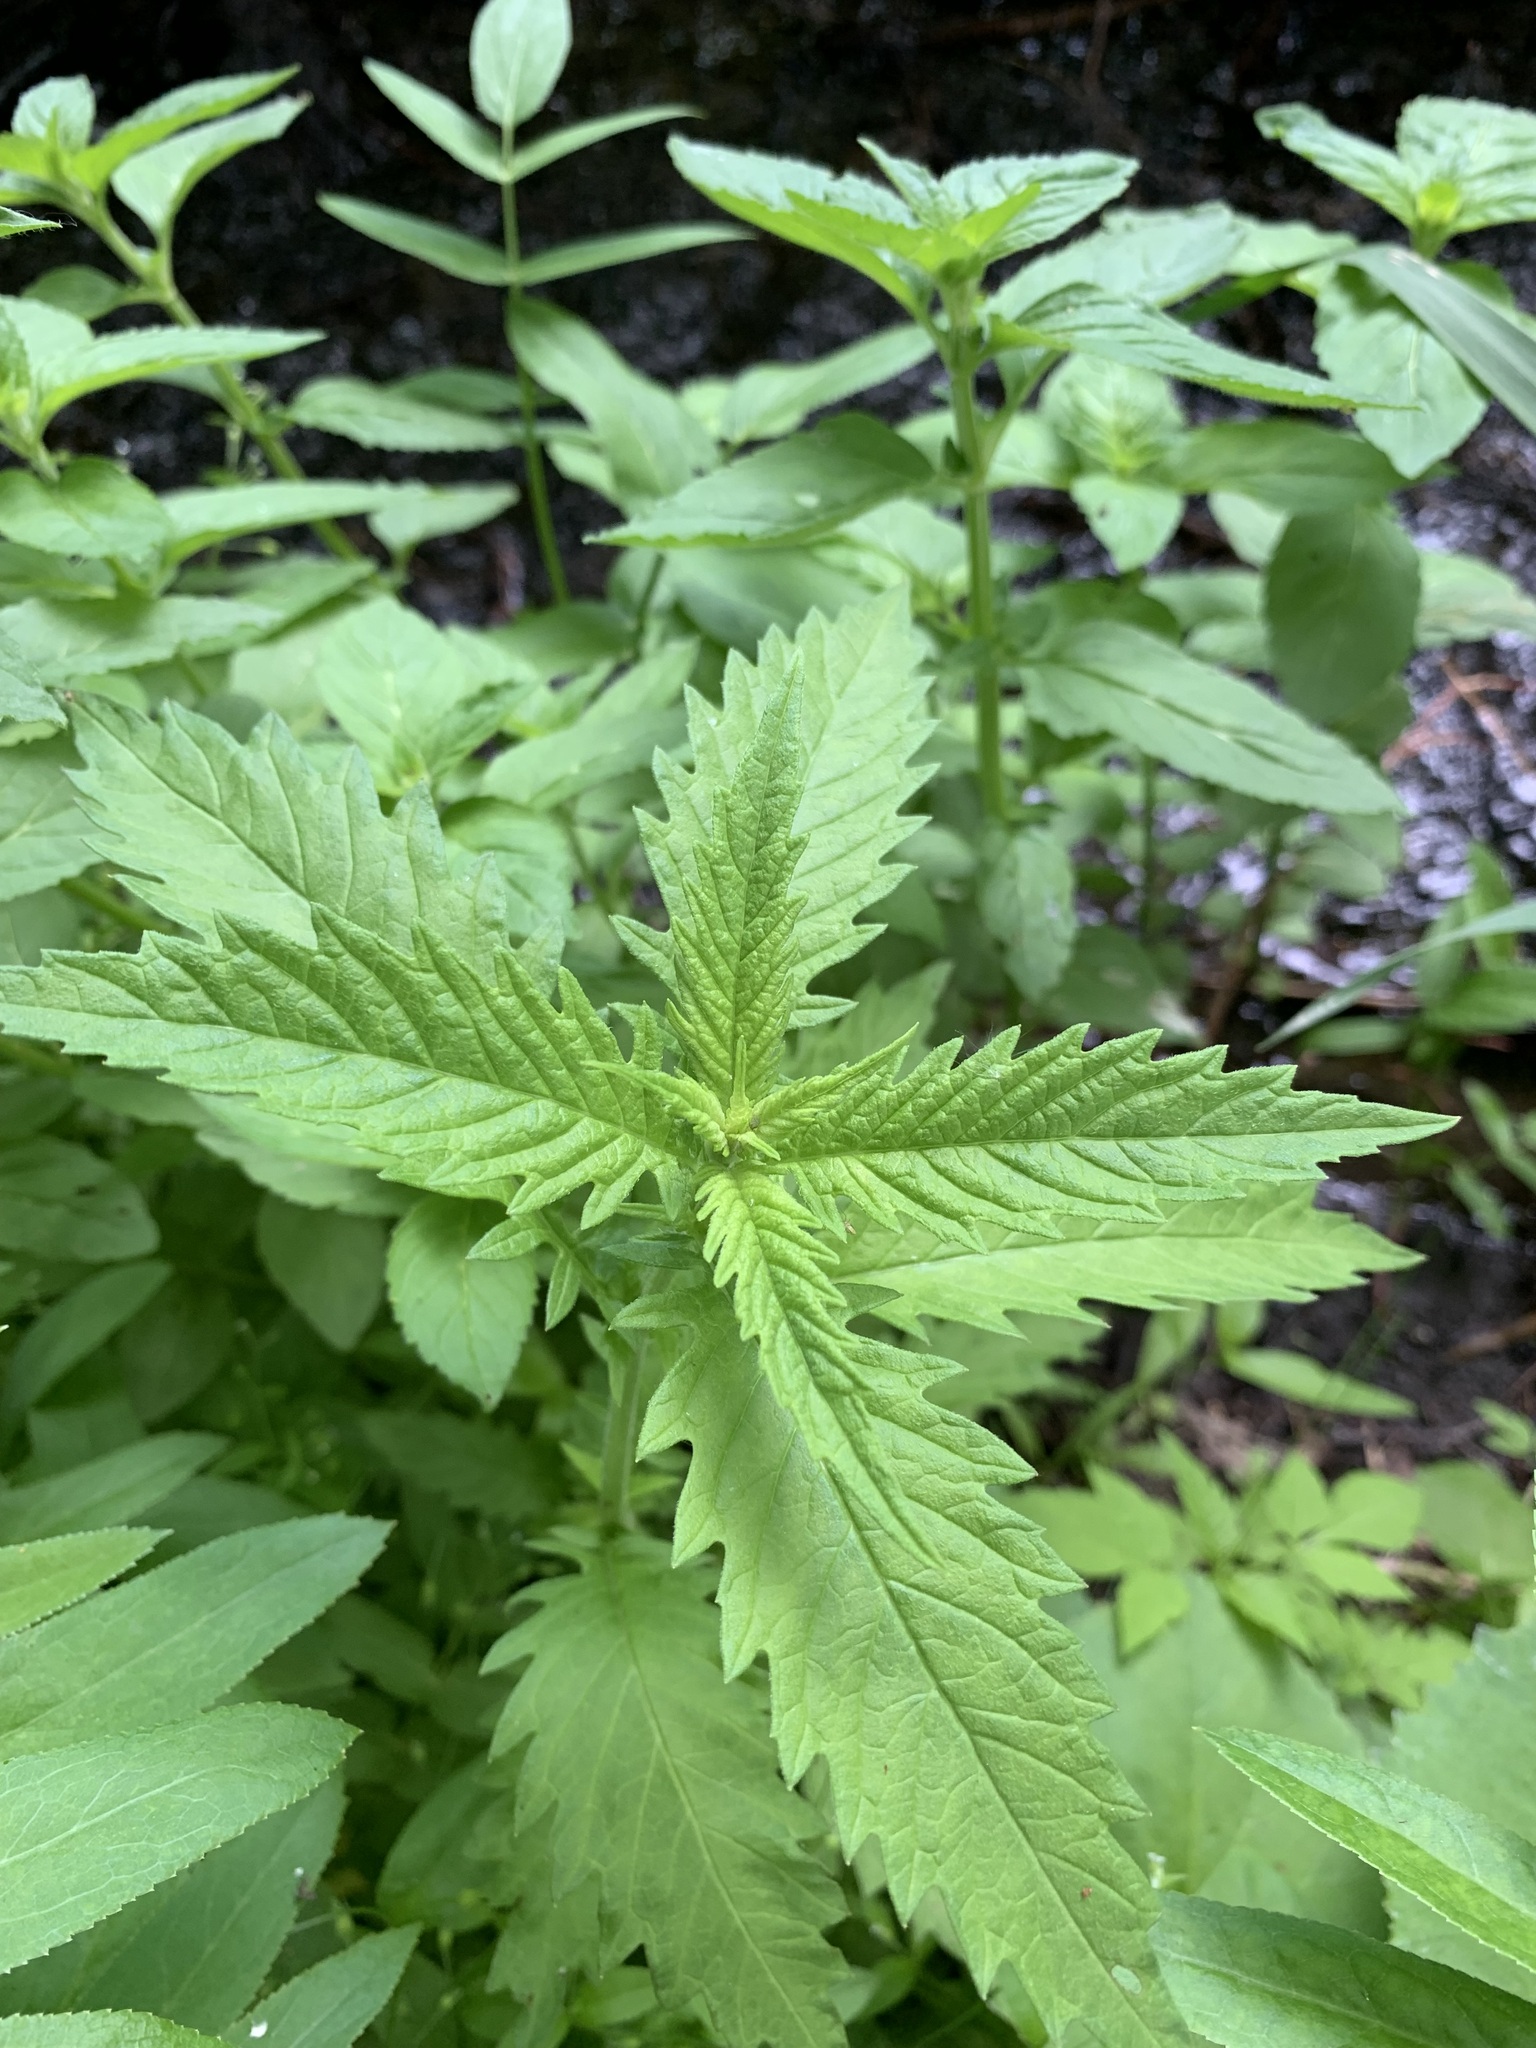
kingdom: Plantae
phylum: Tracheophyta
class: Magnoliopsida
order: Lamiales
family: Lamiaceae
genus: Lycopus
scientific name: Lycopus europaeus
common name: European bugleweed
